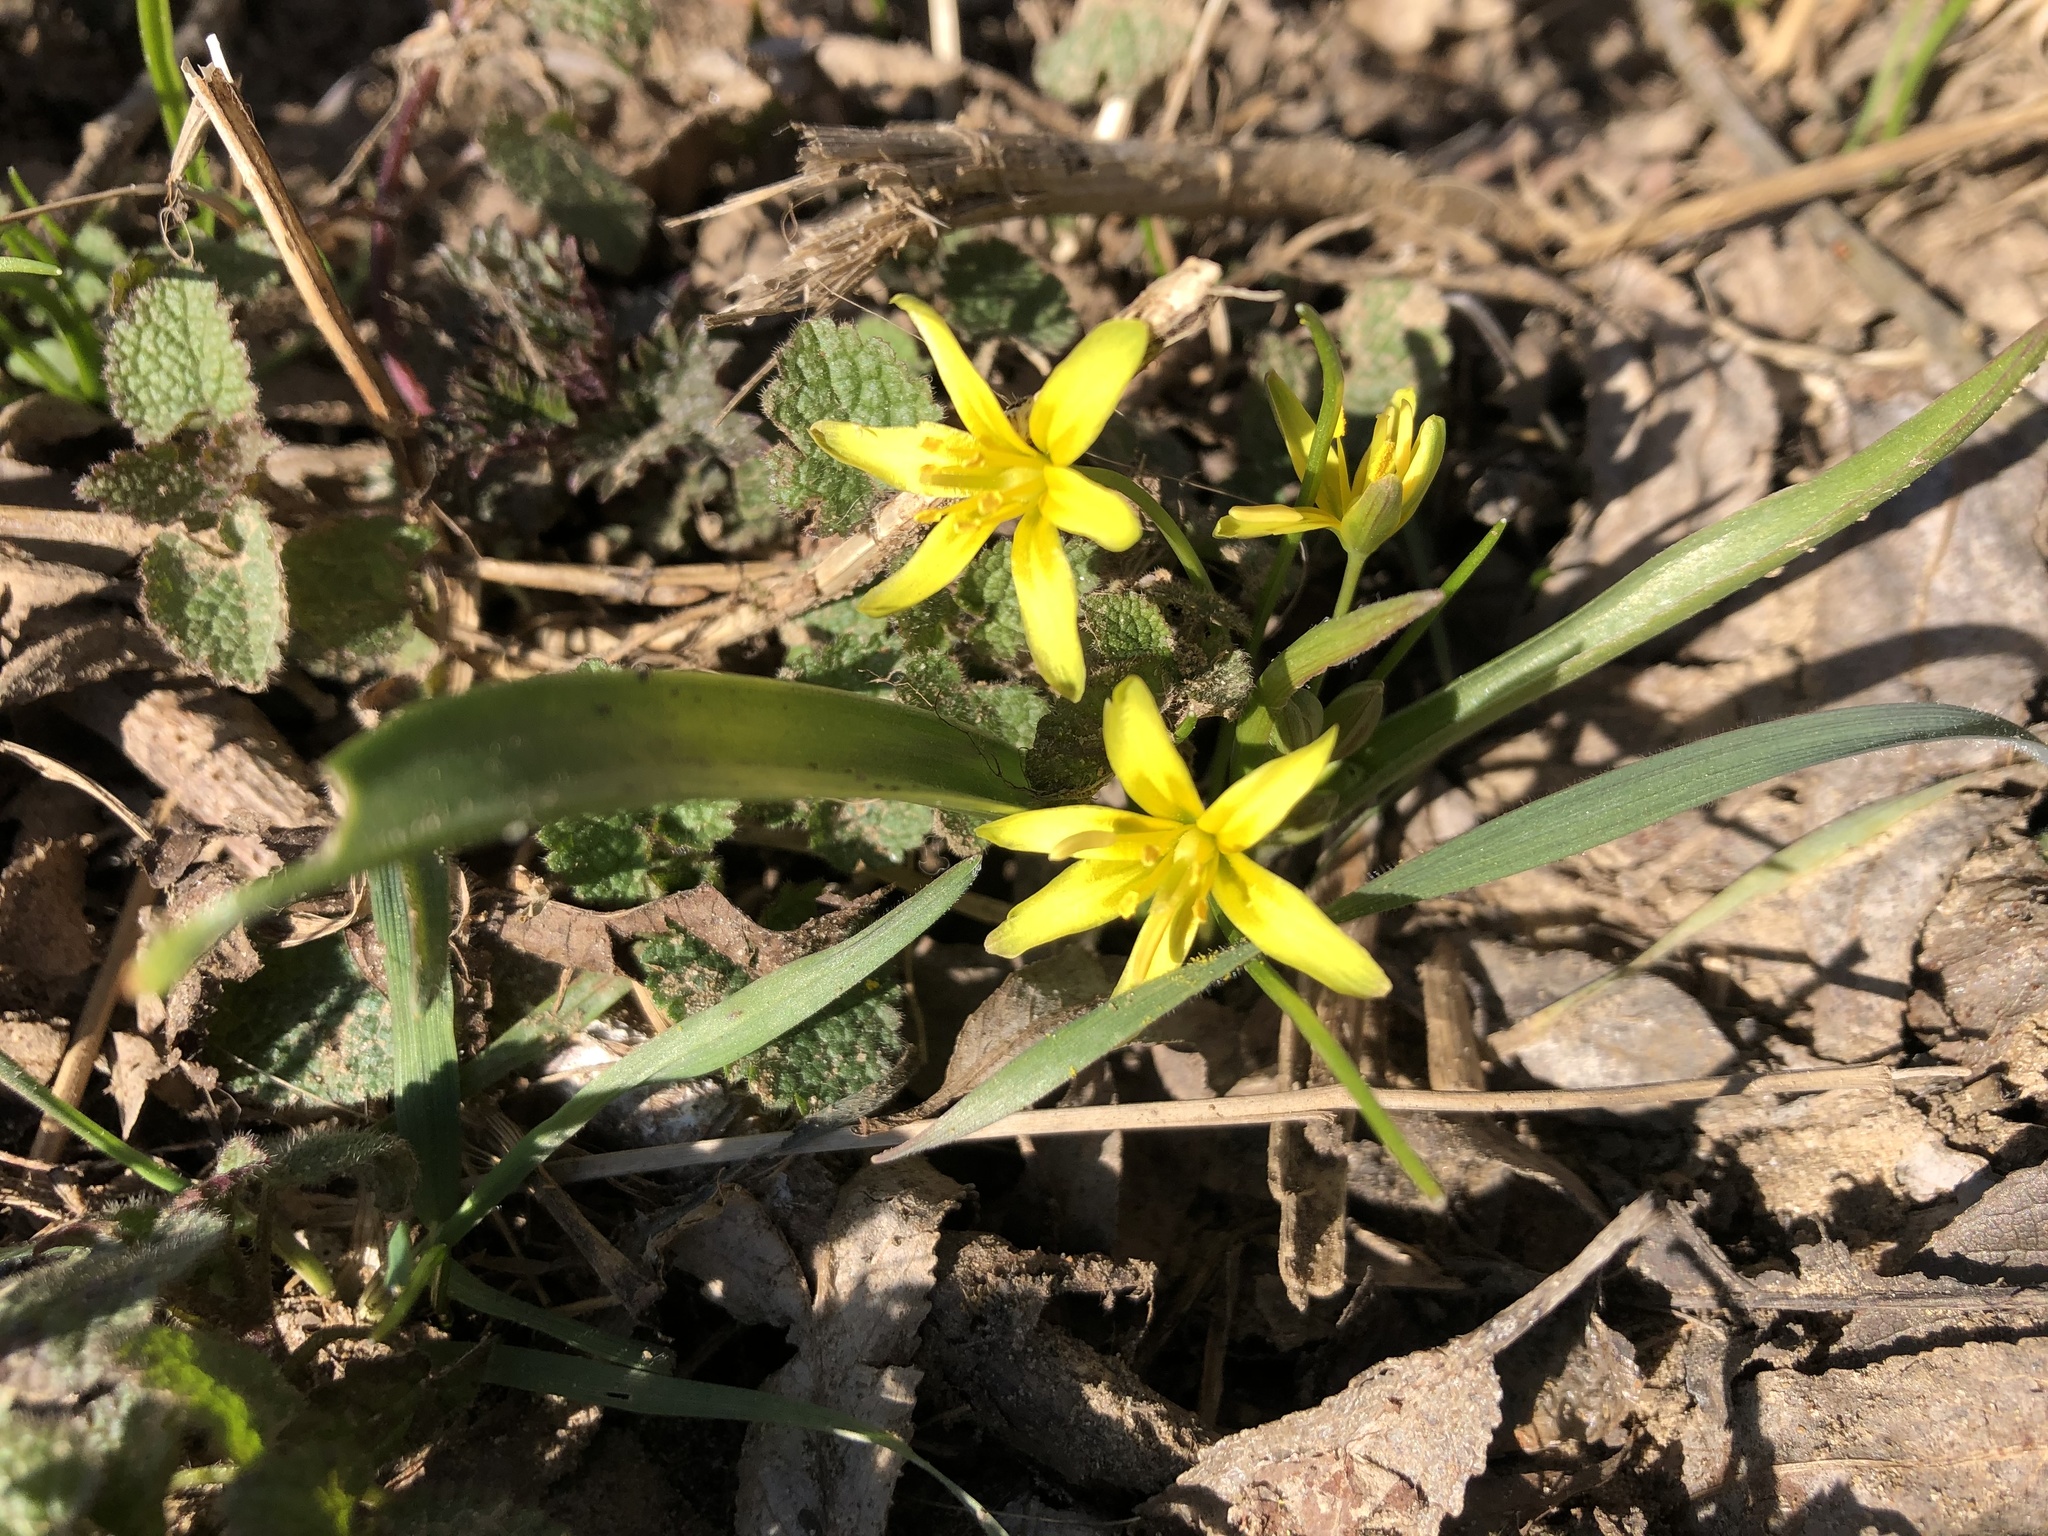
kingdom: Plantae
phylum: Tracheophyta
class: Liliopsida
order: Liliales
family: Liliaceae
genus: Gagea
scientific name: Gagea lutea
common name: Yellow star-of-bethlehem
